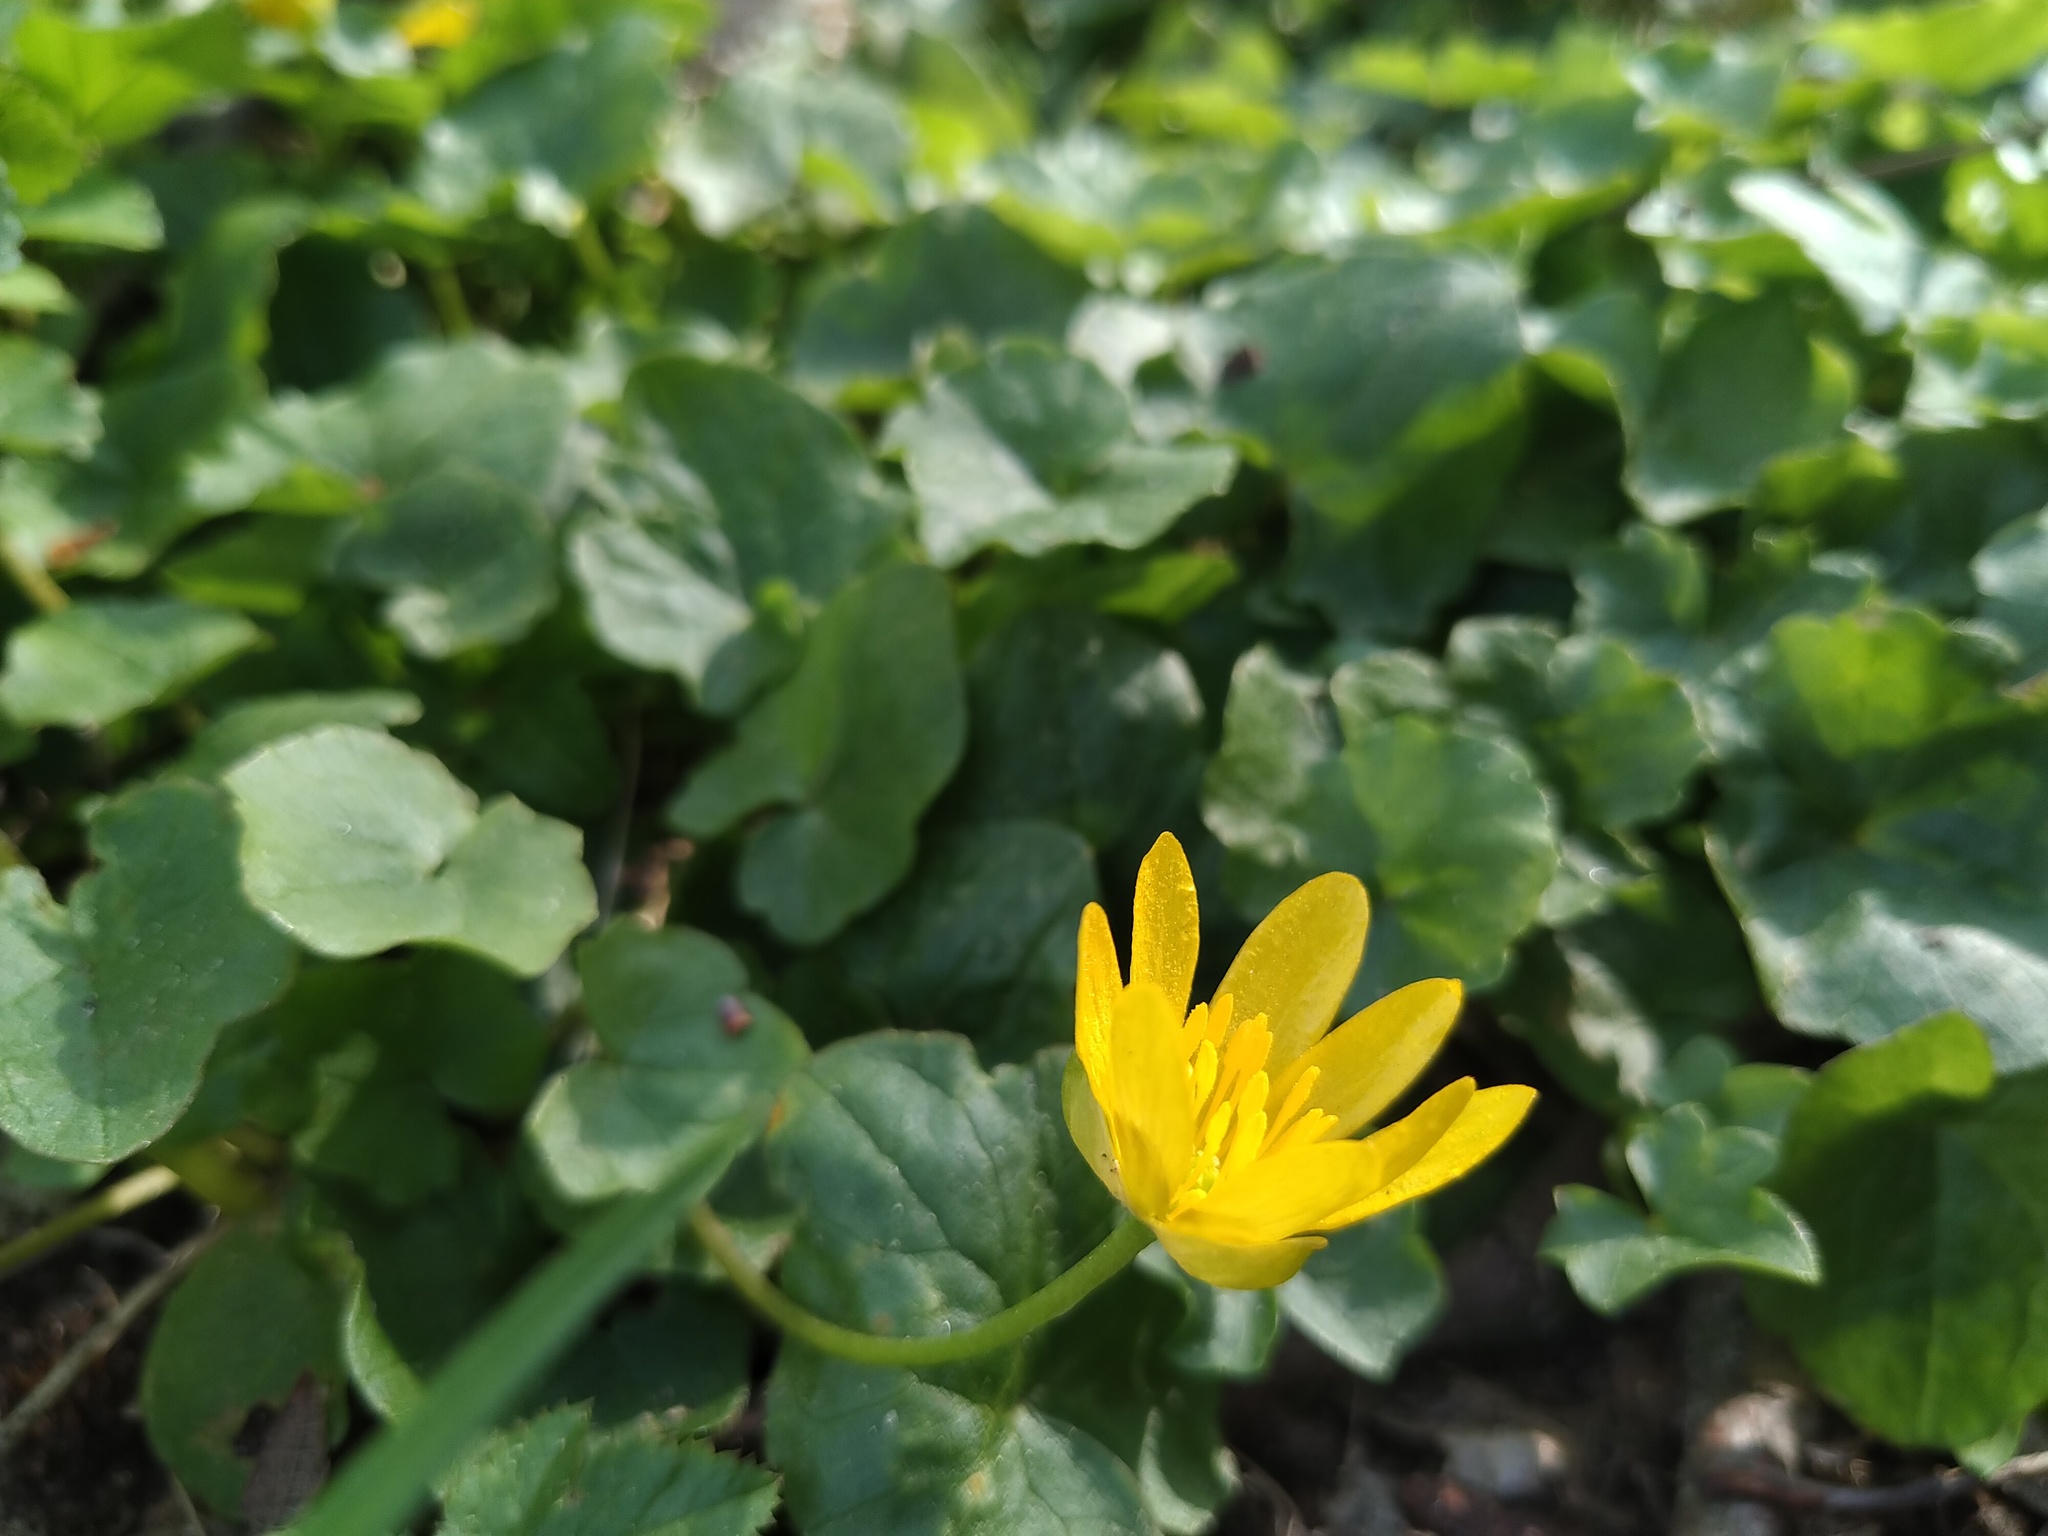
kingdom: Plantae
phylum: Tracheophyta
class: Magnoliopsida
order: Ranunculales
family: Ranunculaceae
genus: Ficaria
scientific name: Ficaria verna
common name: Lesser celandine
